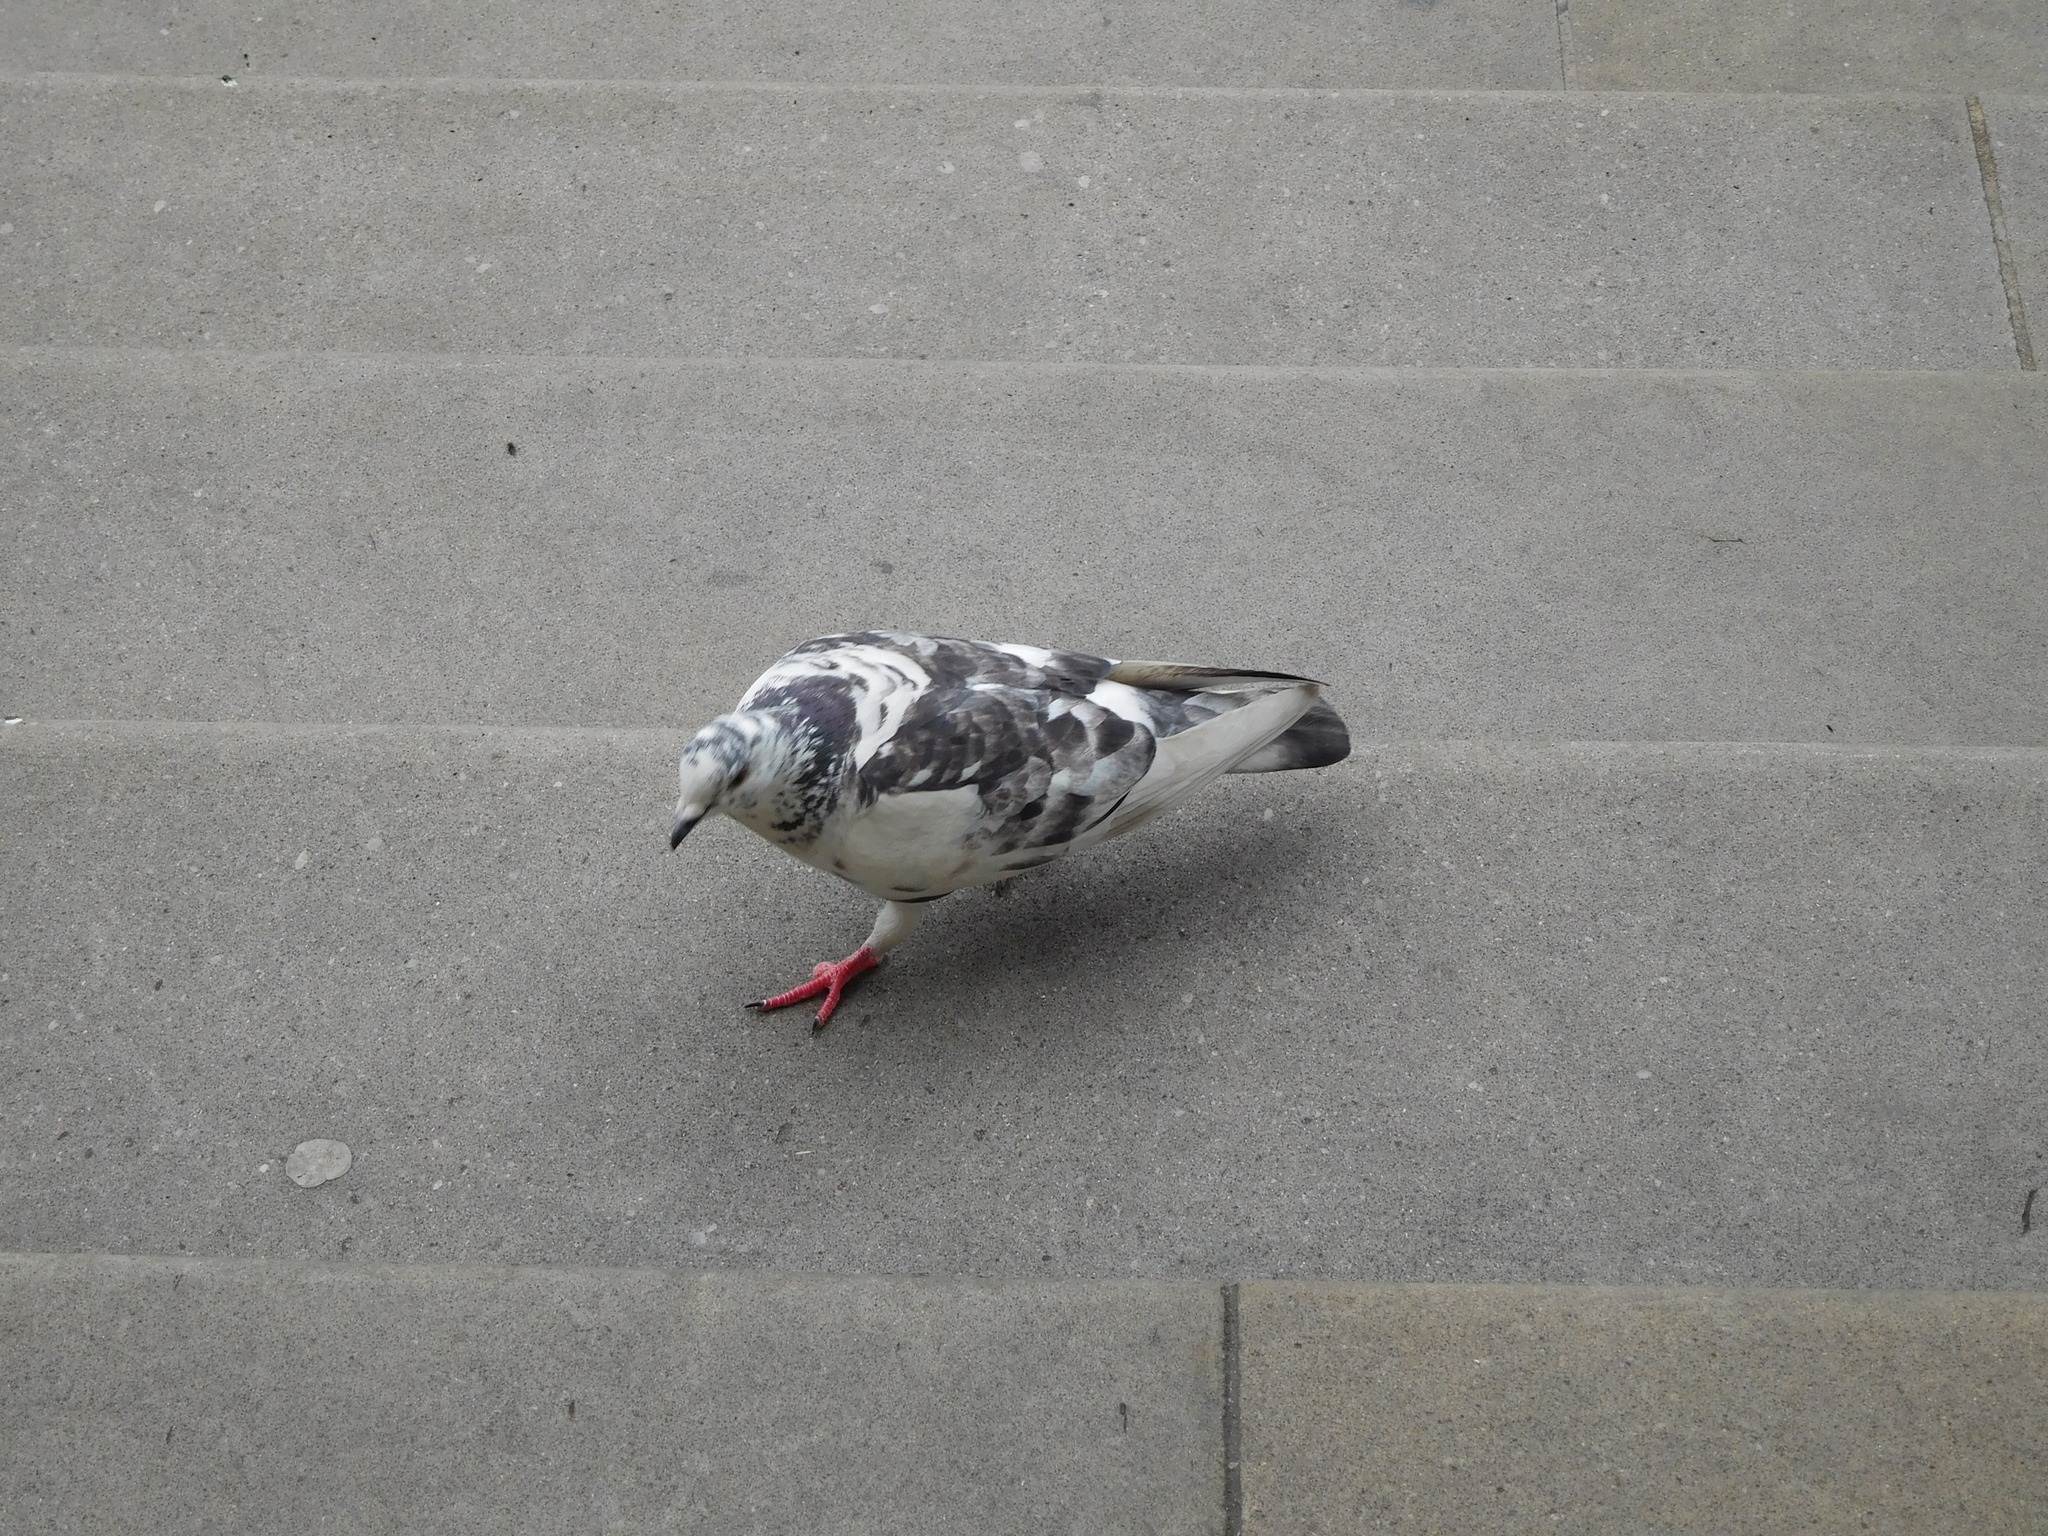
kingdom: Animalia
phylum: Chordata
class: Aves
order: Columbiformes
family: Columbidae
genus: Columba
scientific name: Columba livia
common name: Rock pigeon
